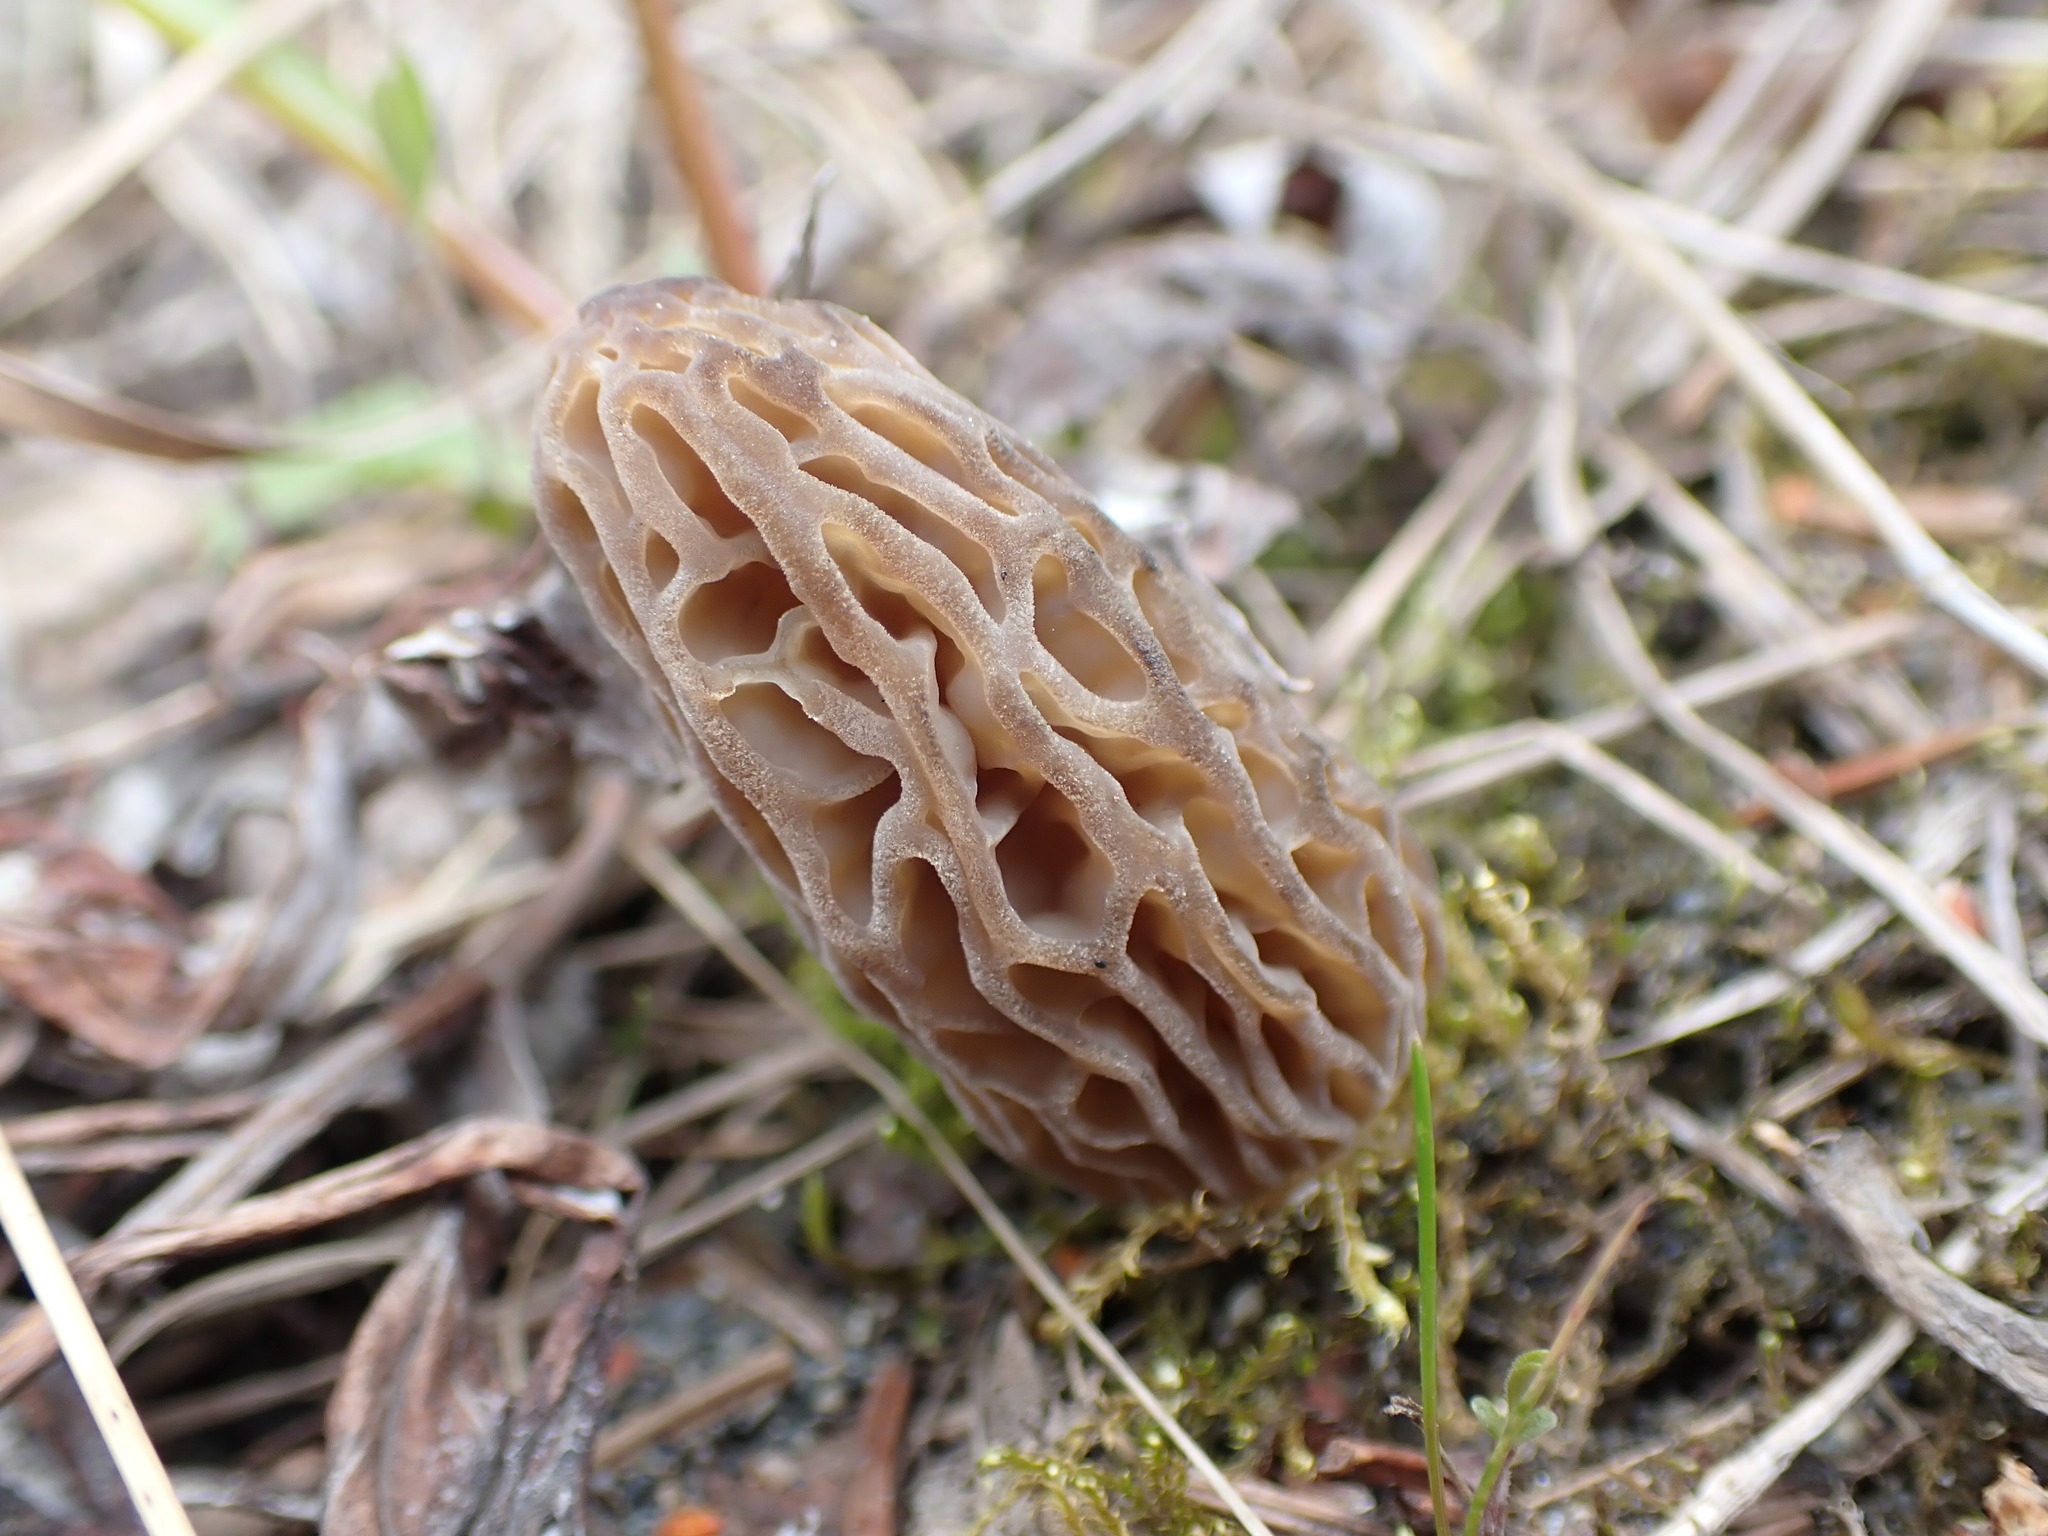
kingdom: Fungi
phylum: Ascomycota
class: Pezizomycetes
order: Pezizales
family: Morchellaceae
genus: Morchella
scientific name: Morchella norvegiensis
